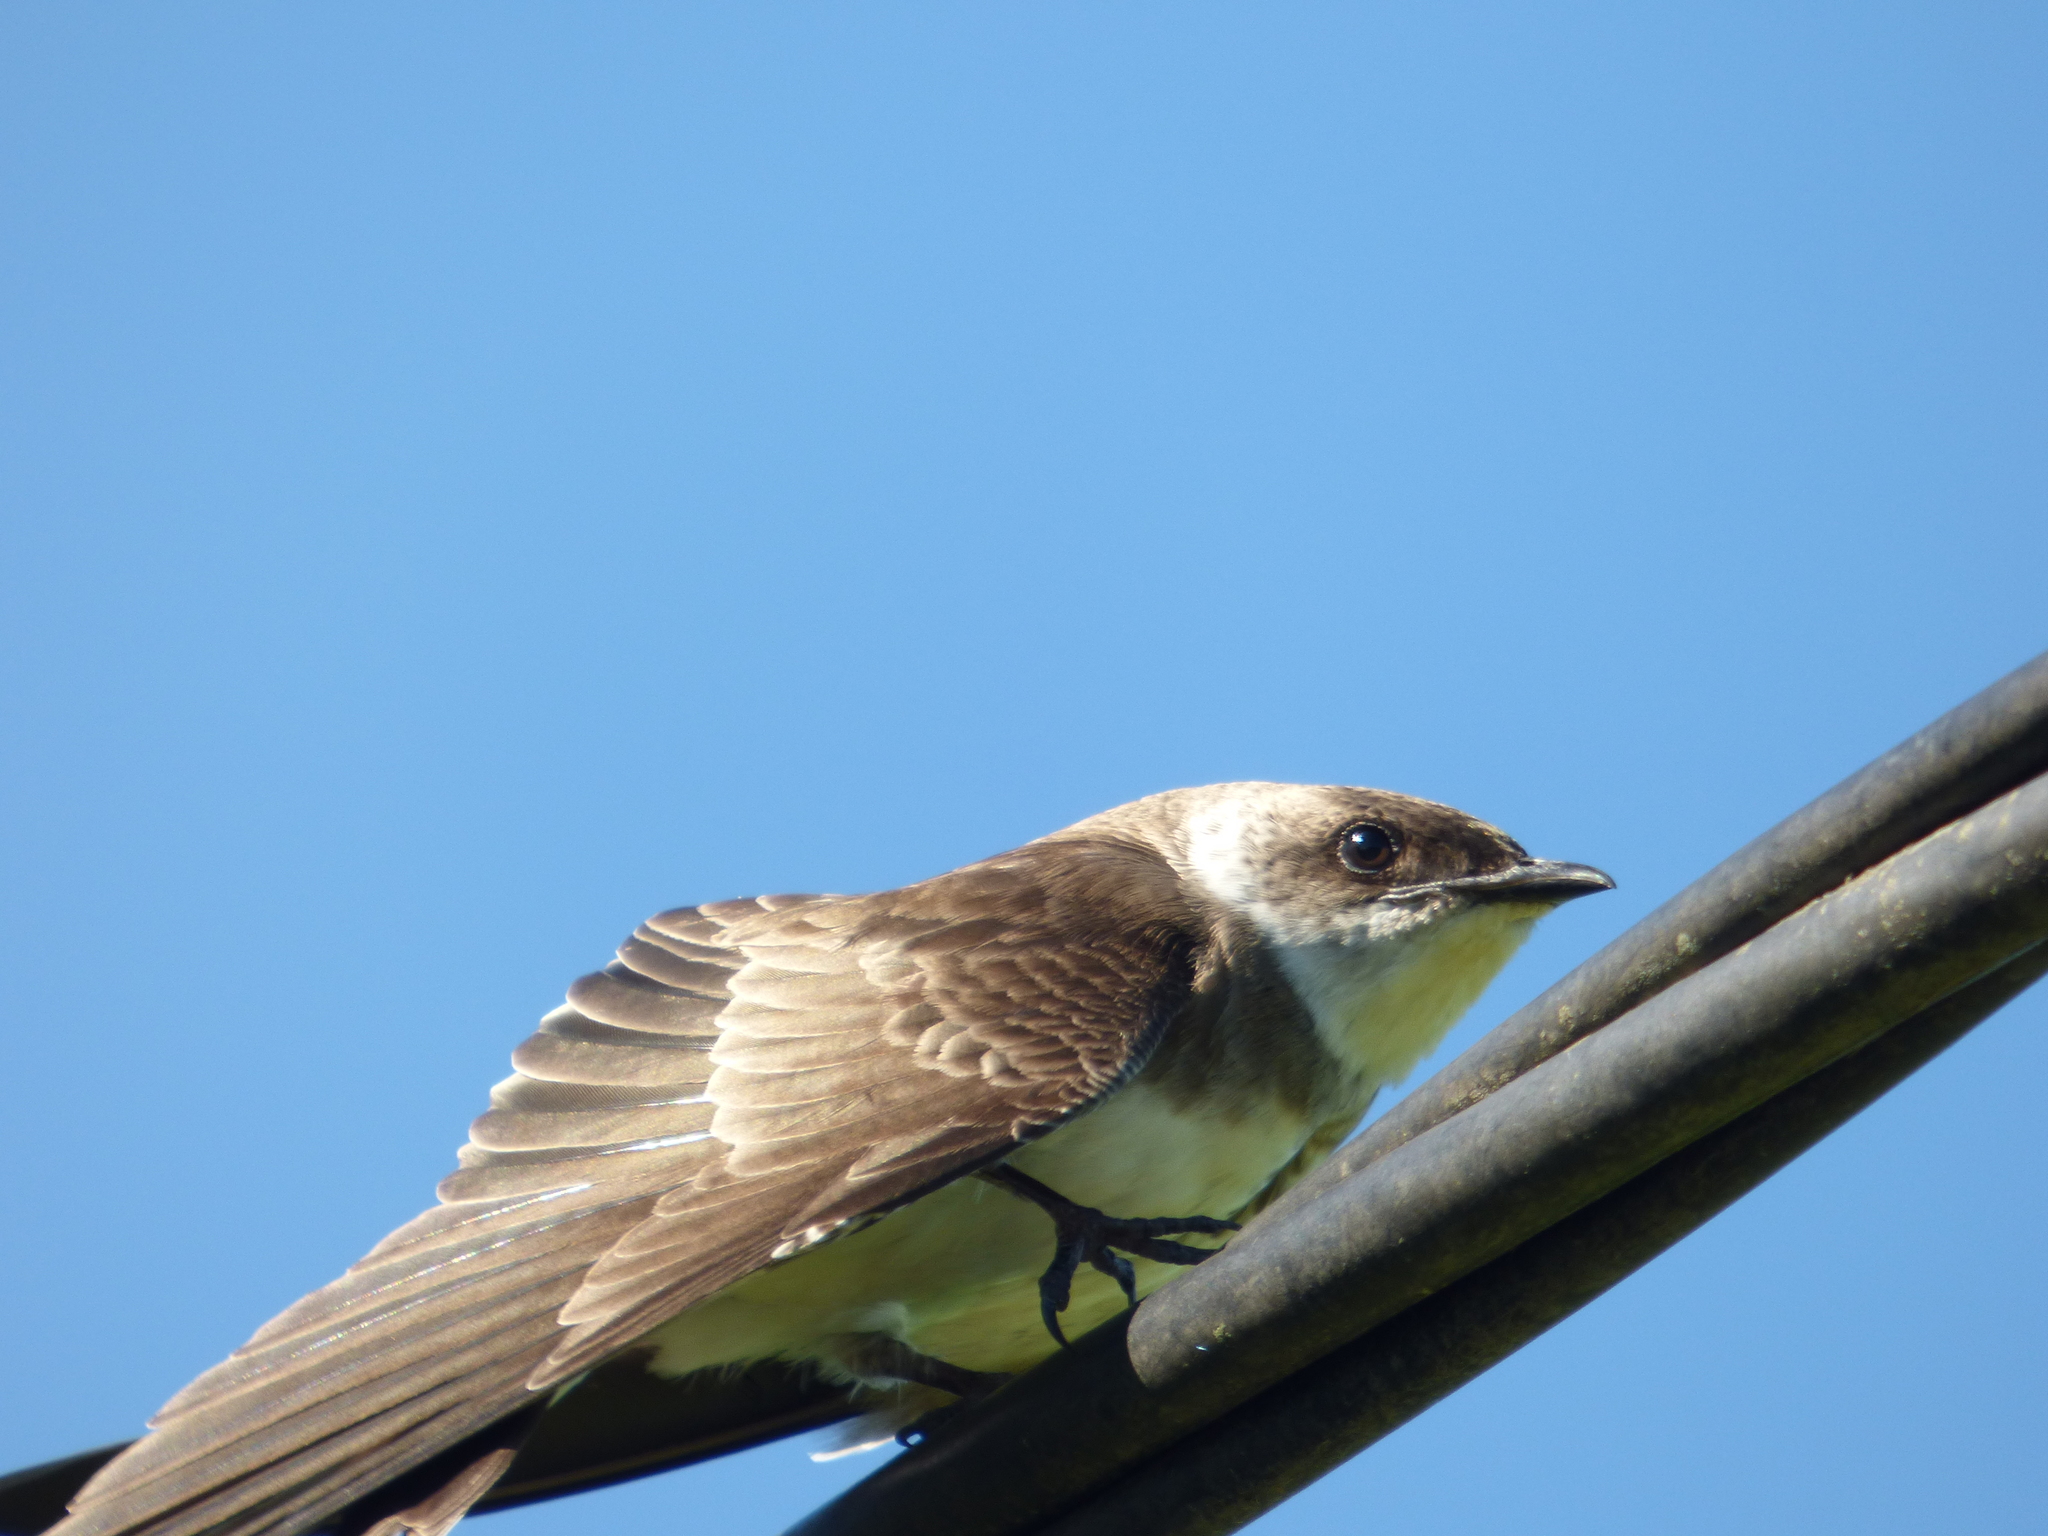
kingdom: Animalia
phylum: Chordata
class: Aves
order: Passeriformes
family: Hirundinidae
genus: Progne
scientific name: Progne tapera
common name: Brown-chested martin
